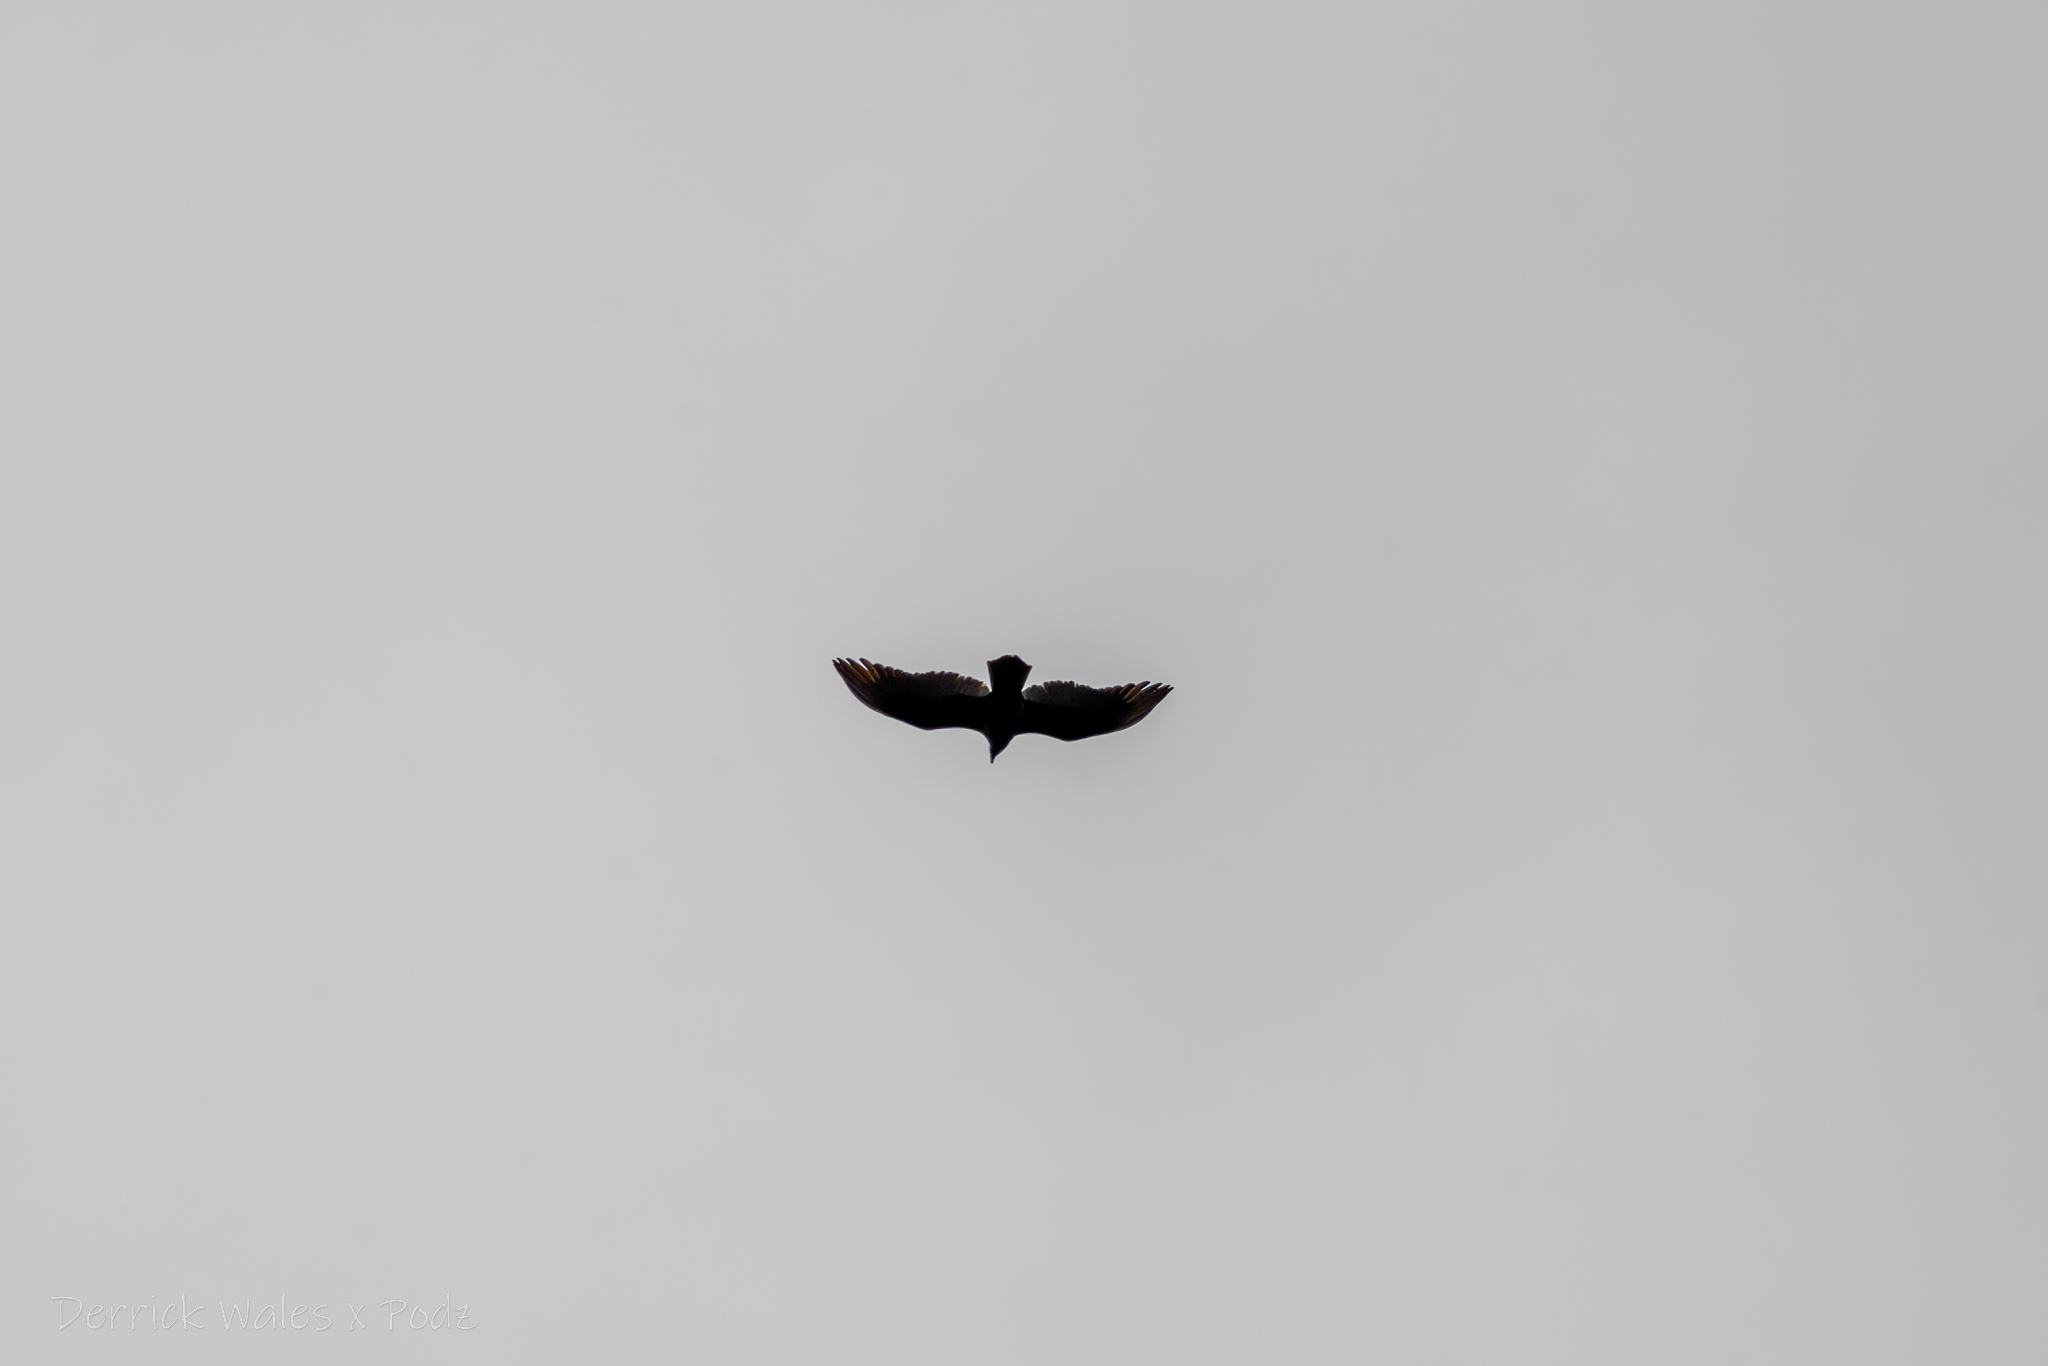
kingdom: Animalia
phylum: Chordata
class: Aves
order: Accipitriformes
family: Cathartidae
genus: Cathartes
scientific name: Cathartes aura
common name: Turkey vulture
